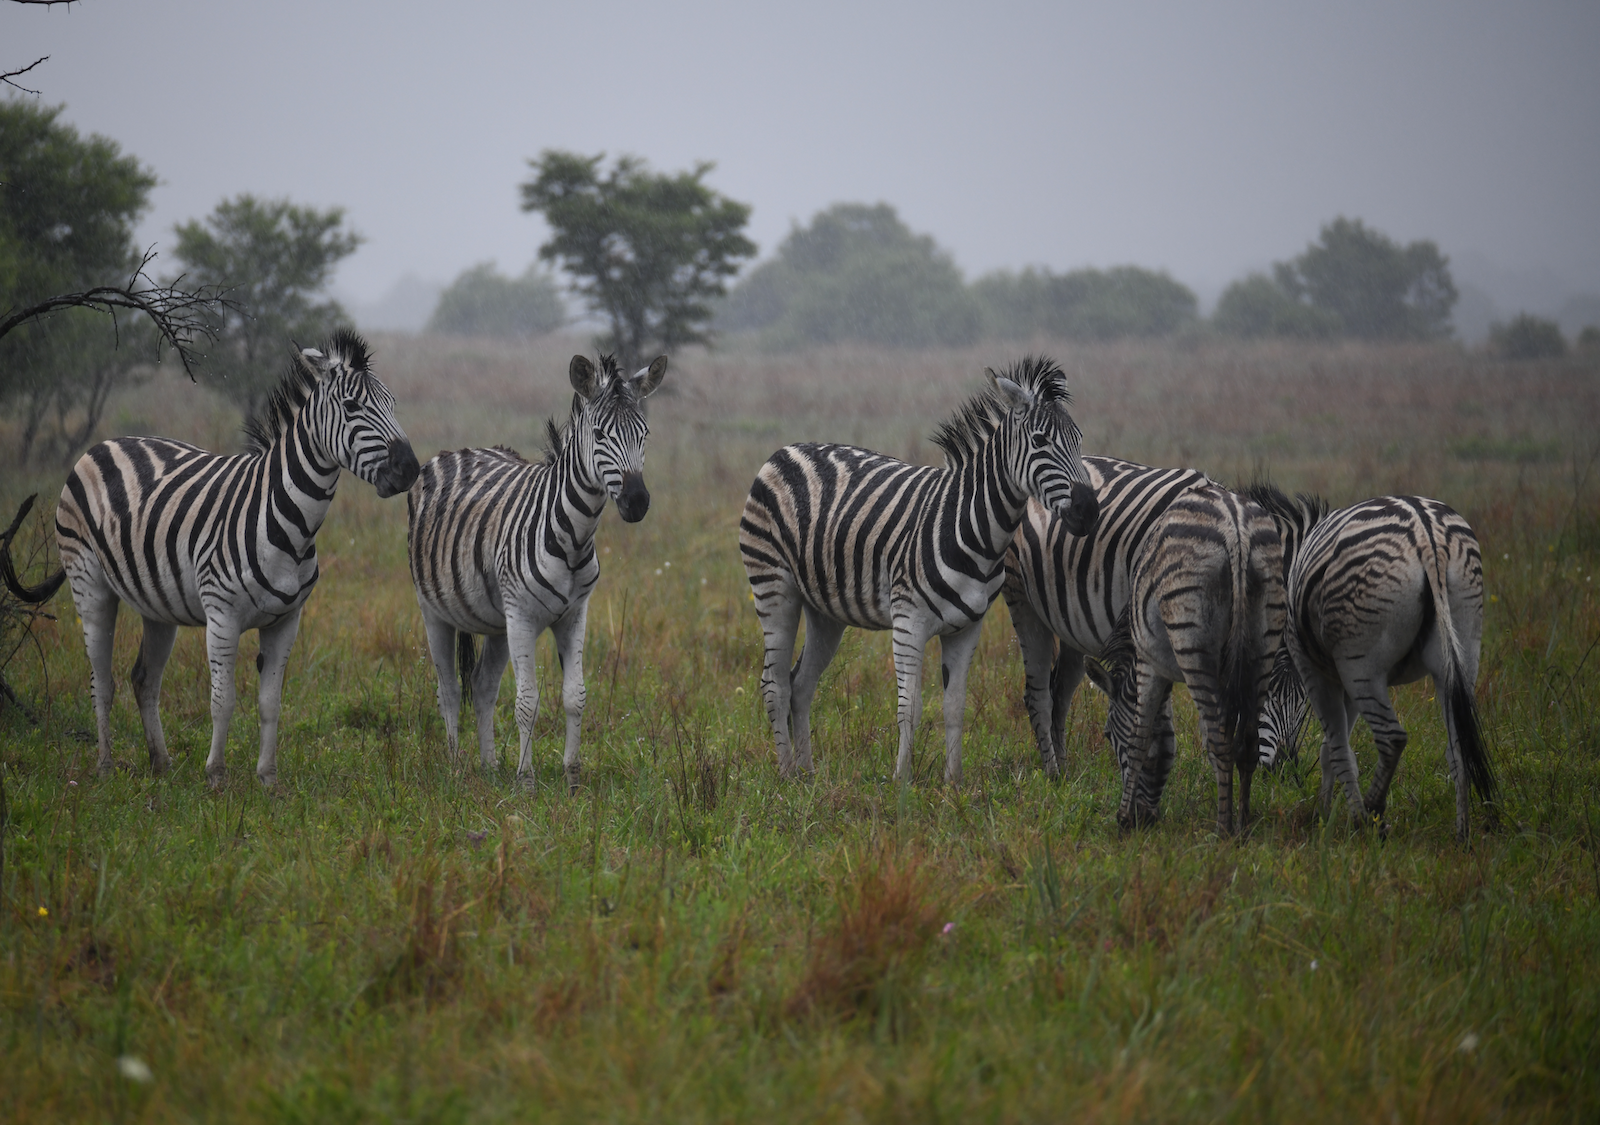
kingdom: Animalia
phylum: Chordata
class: Mammalia
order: Perissodactyla
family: Equidae
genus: Equus
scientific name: Equus quagga
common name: Plains zebra
